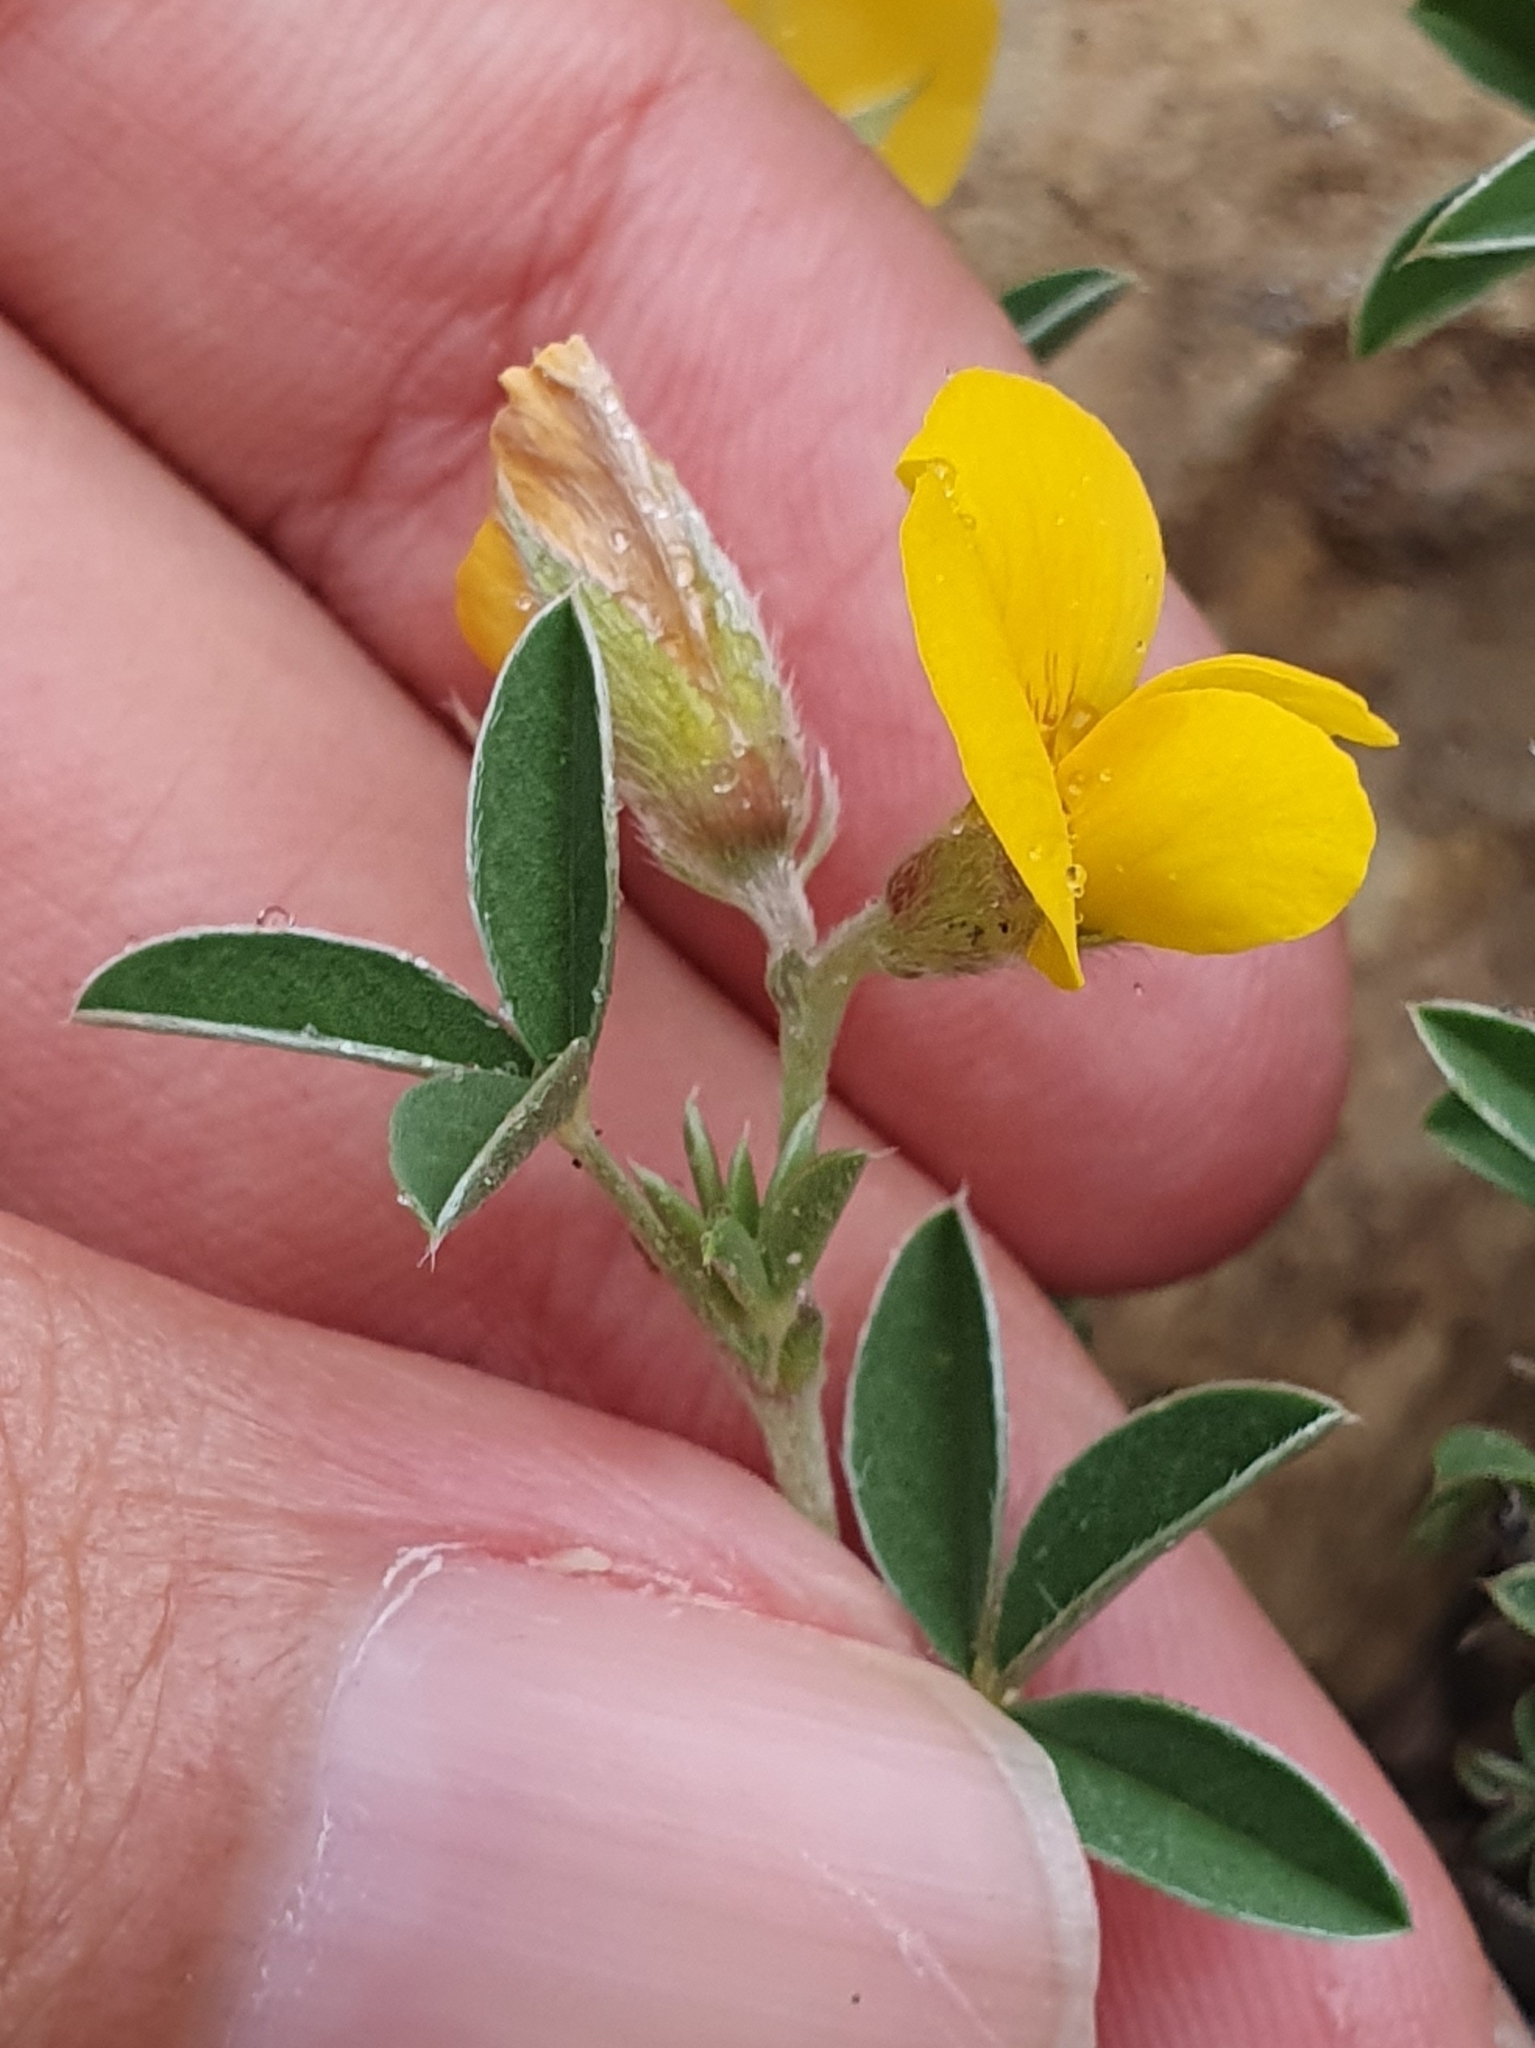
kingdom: Plantae
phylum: Tracheophyta
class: Magnoliopsida
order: Fabales
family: Fabaceae
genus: Argyrolobium
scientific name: Argyrolobium zanonii
